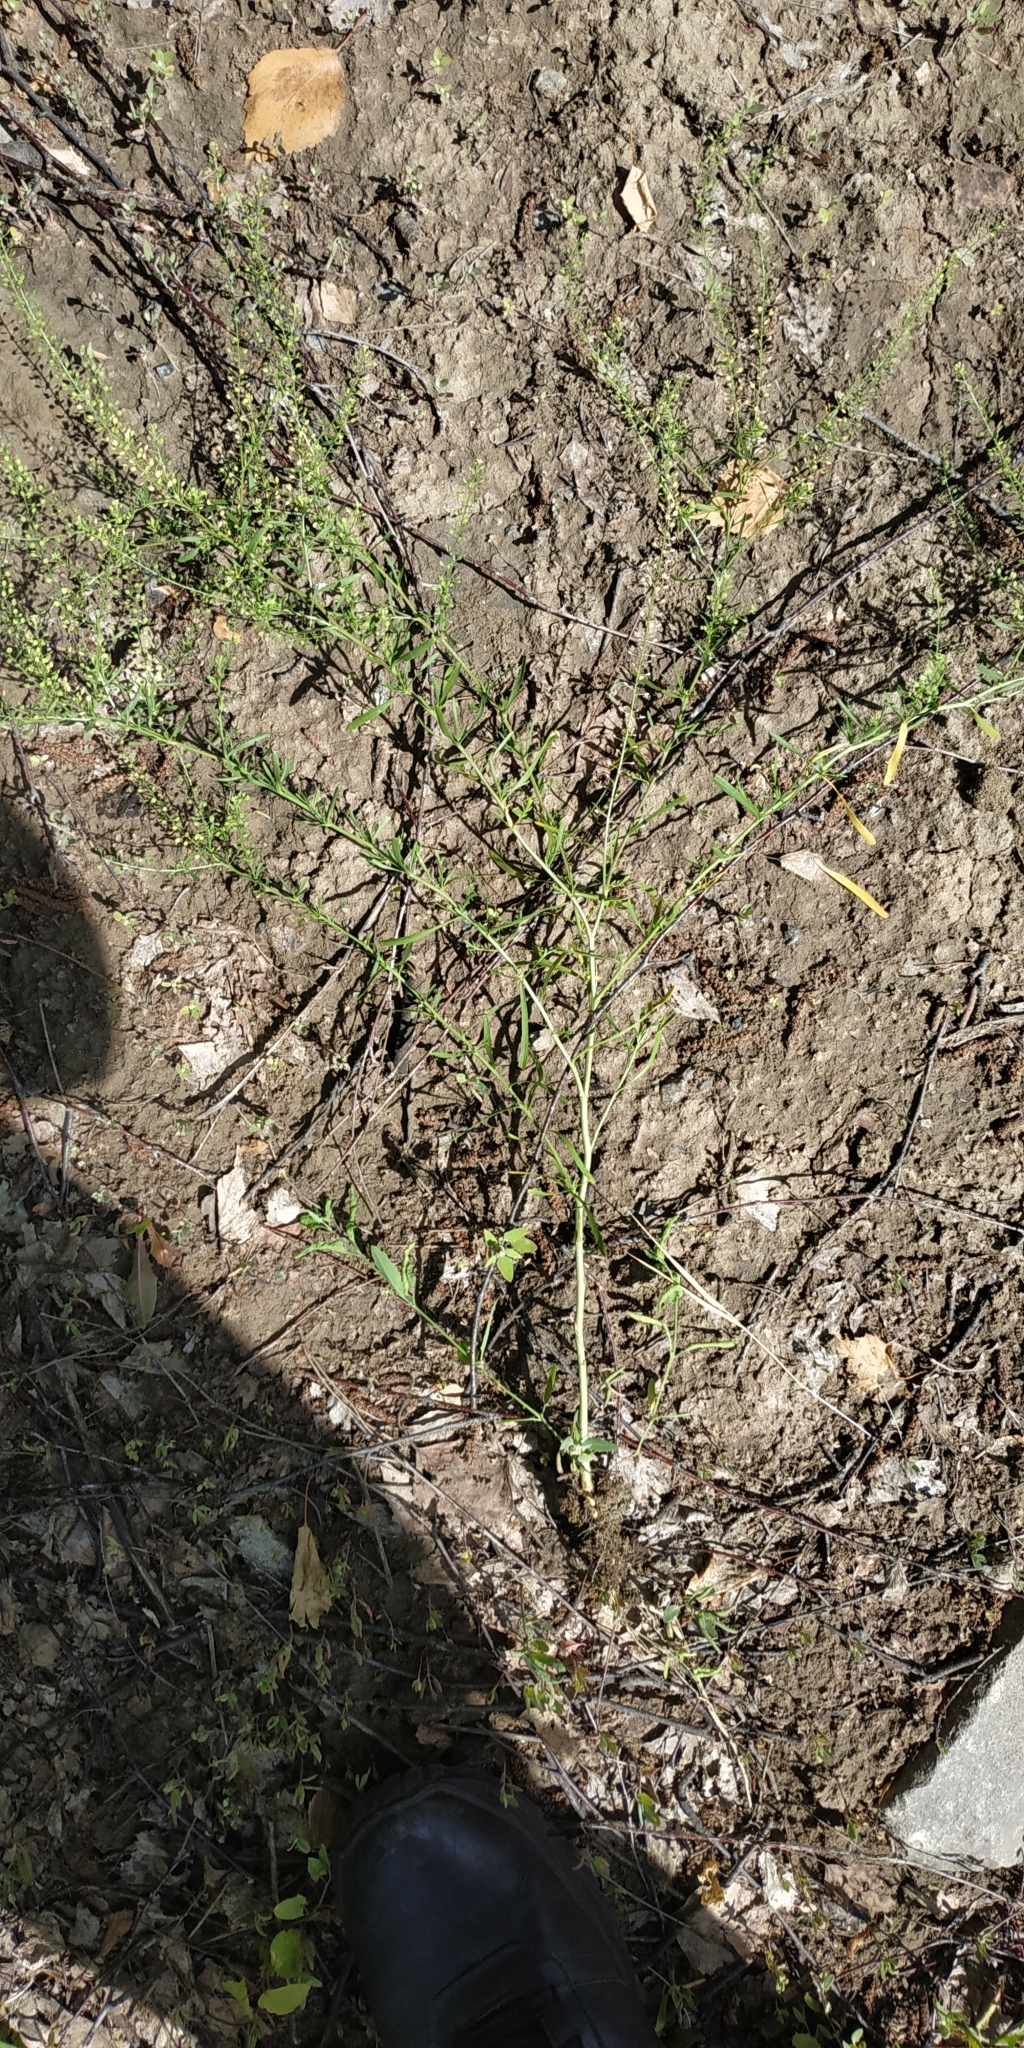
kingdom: Plantae
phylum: Tracheophyta
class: Magnoliopsida
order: Brassicales
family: Brassicaceae
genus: Lepidium
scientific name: Lepidium ruderale
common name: Narrow-leaved pepperwort
